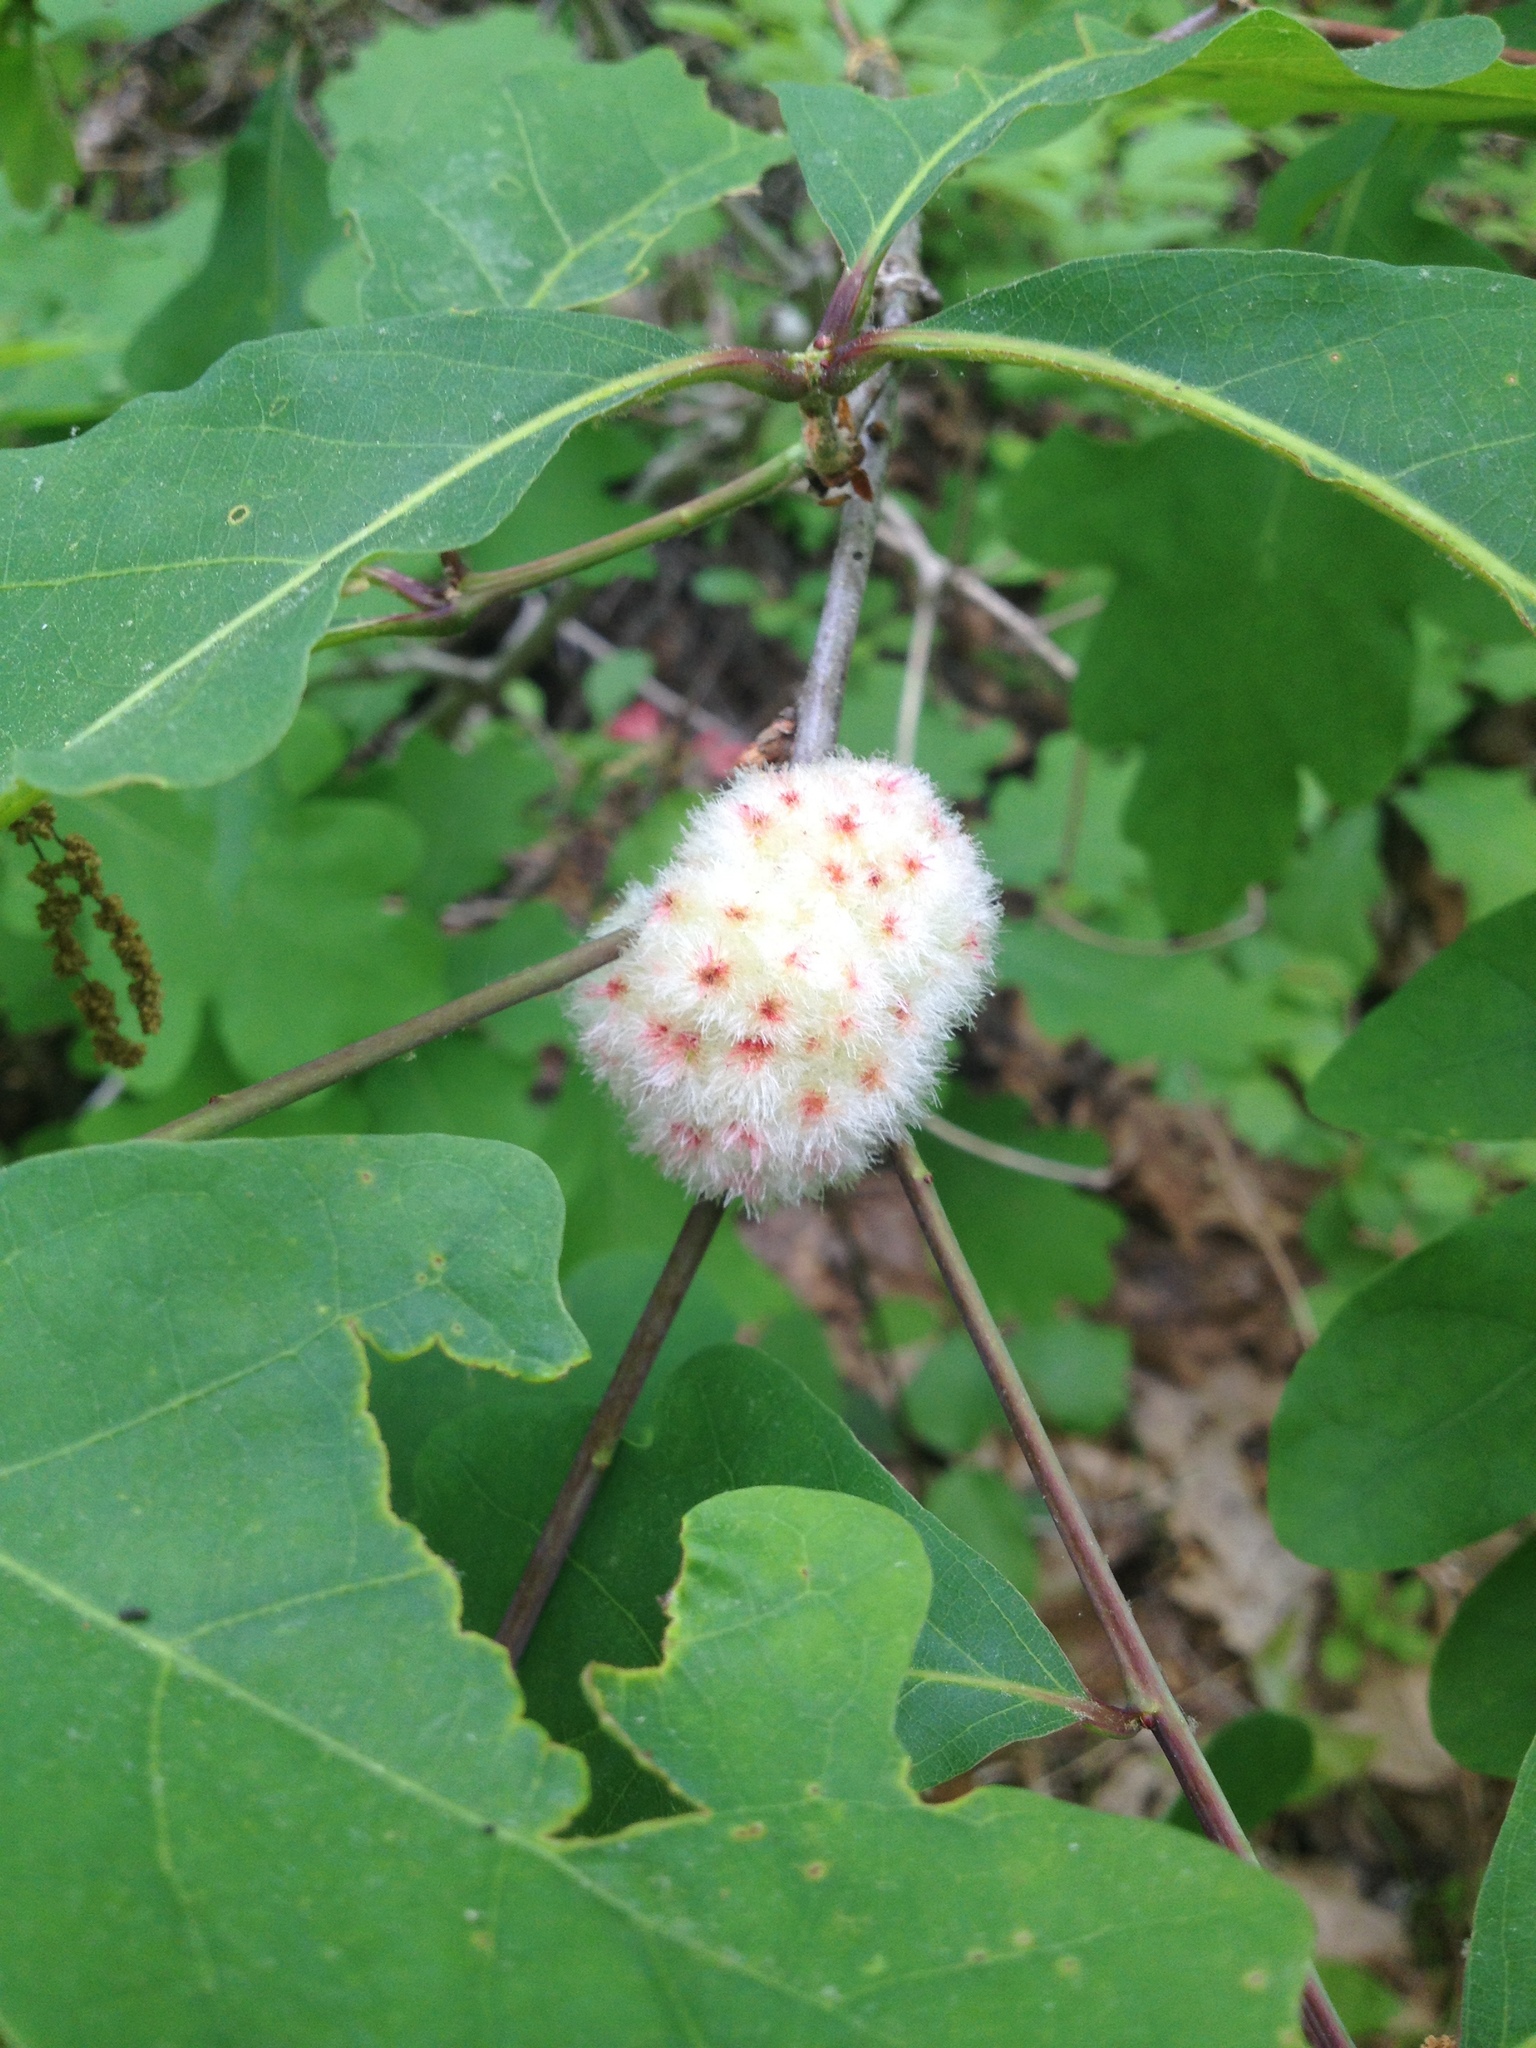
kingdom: Animalia
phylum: Arthropoda
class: Insecta
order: Hymenoptera
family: Cynipidae
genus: Callirhytis
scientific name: Callirhytis
